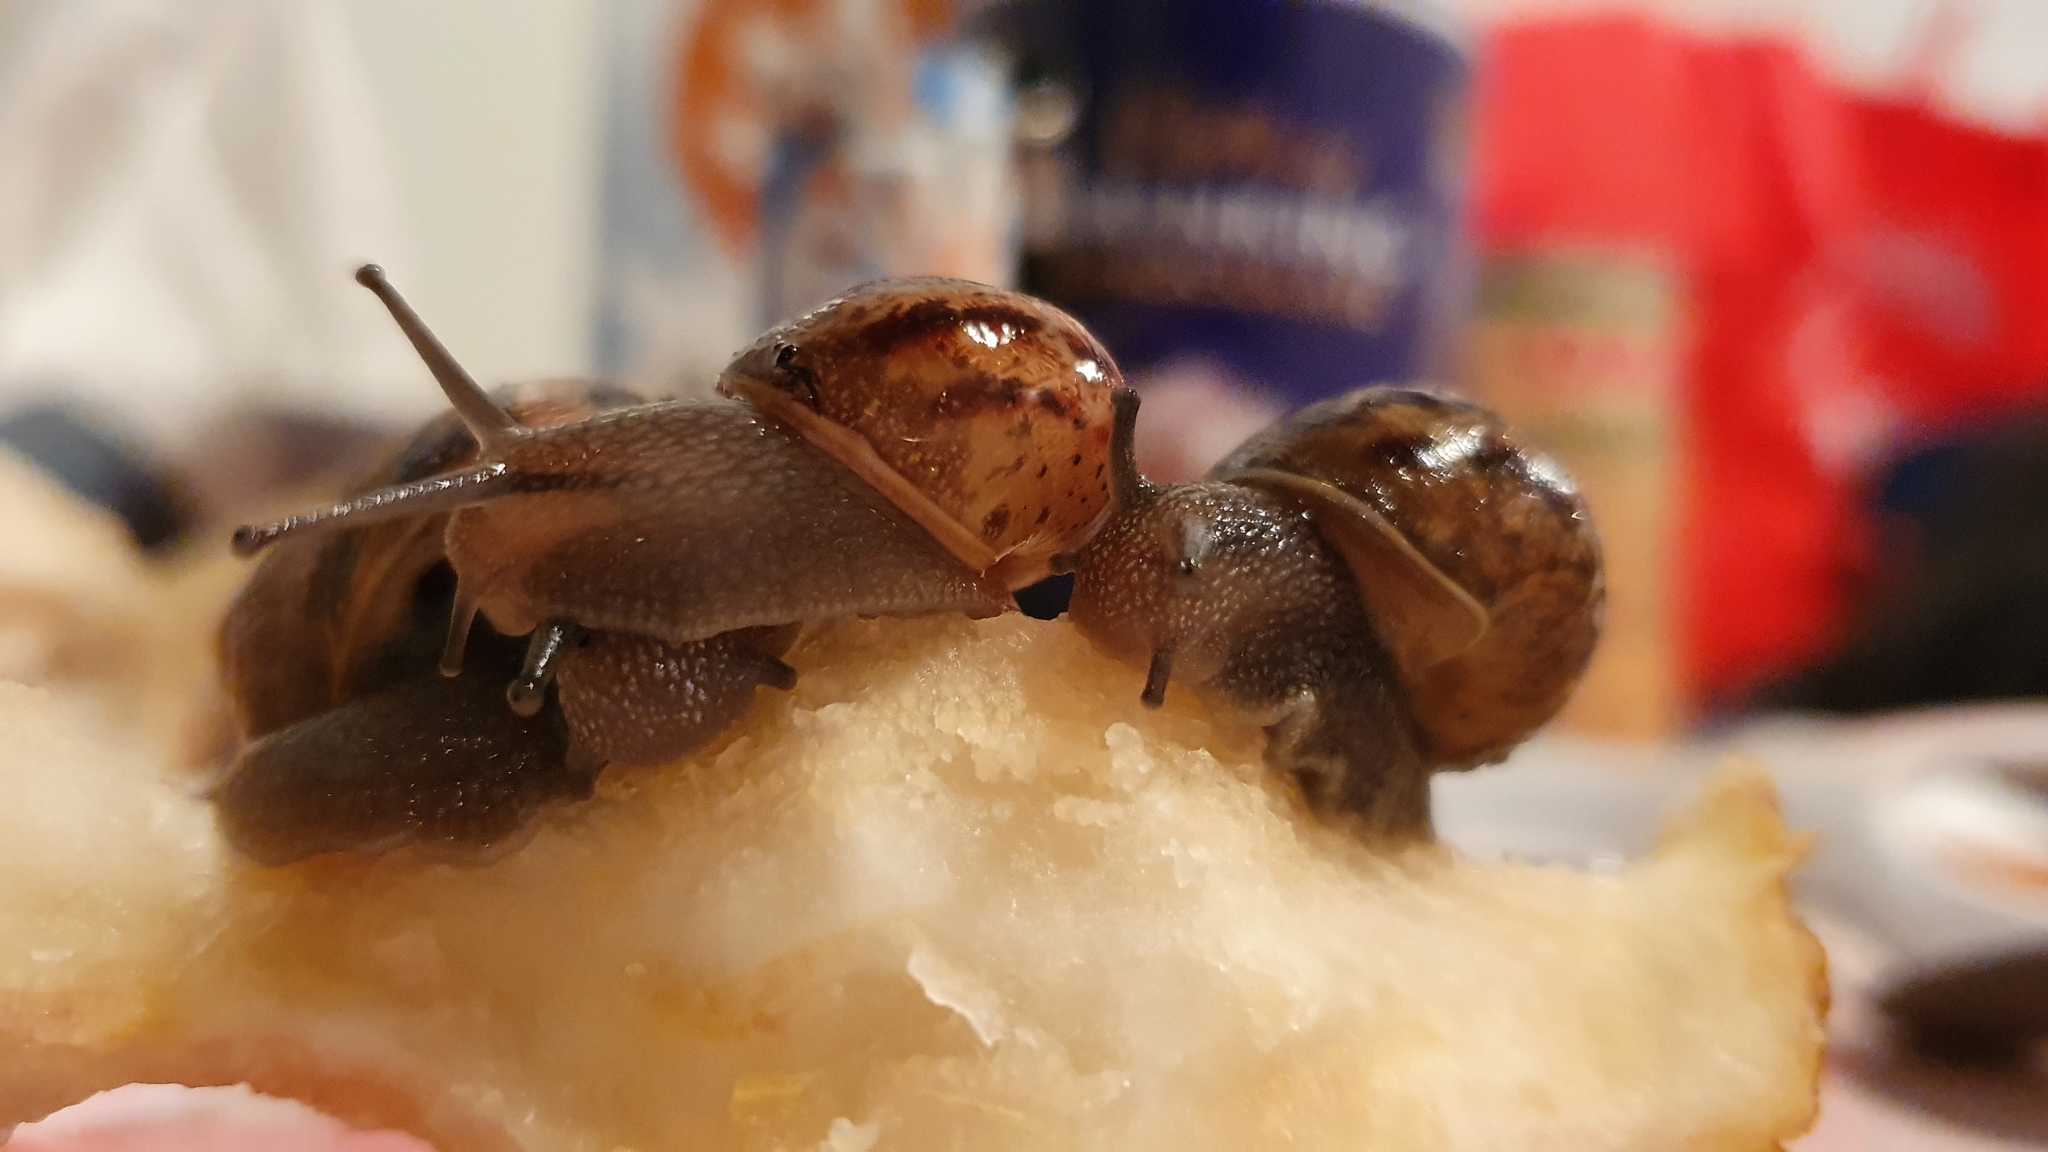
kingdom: Animalia
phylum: Mollusca
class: Gastropoda
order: Stylommatophora
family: Helicidae
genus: Cornu
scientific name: Cornu aspersum
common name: Brown garden snail
